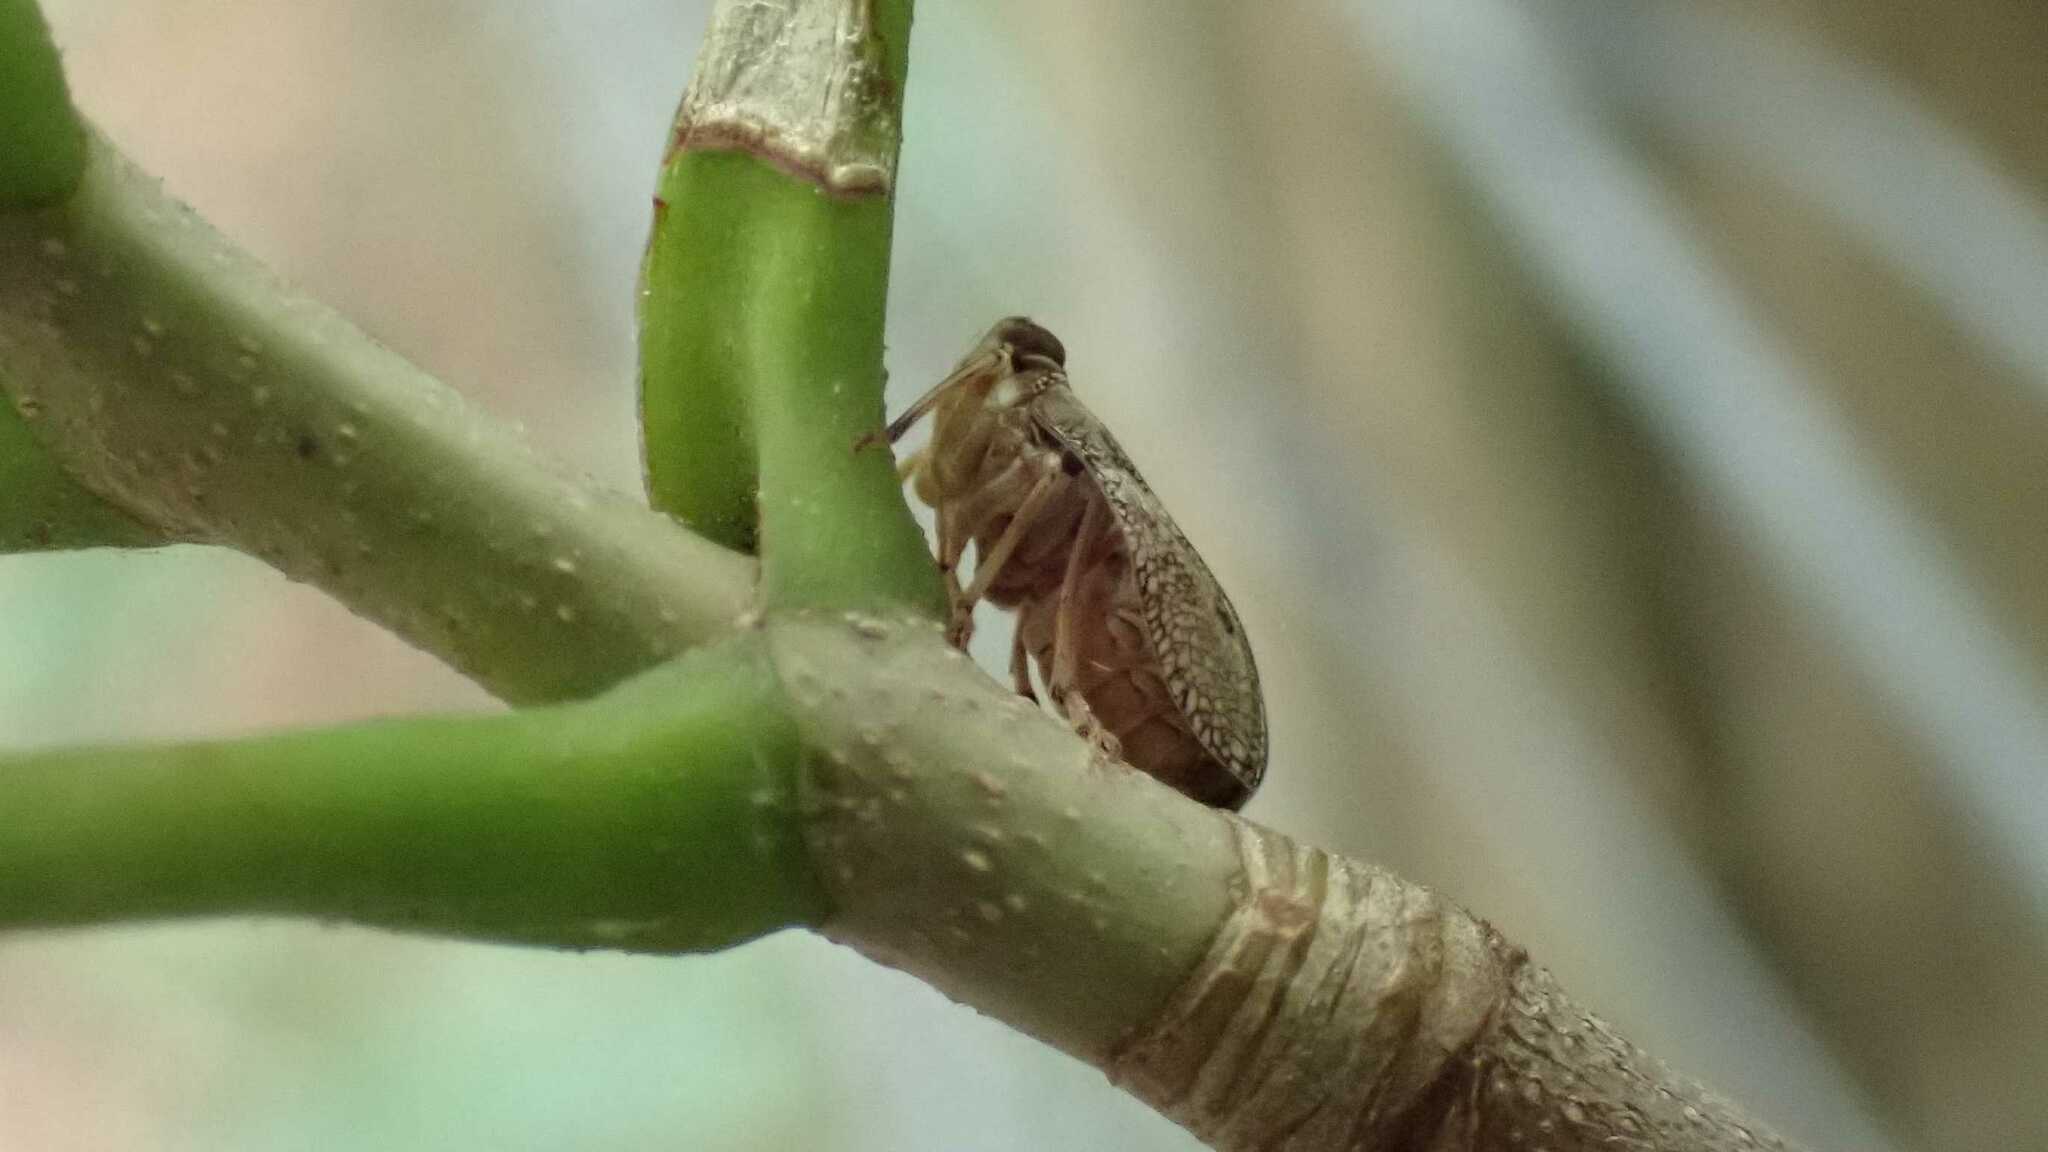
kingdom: Animalia
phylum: Arthropoda
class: Insecta
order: Hemiptera
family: Issidae
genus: Issus
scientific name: Issus coleoptratus
